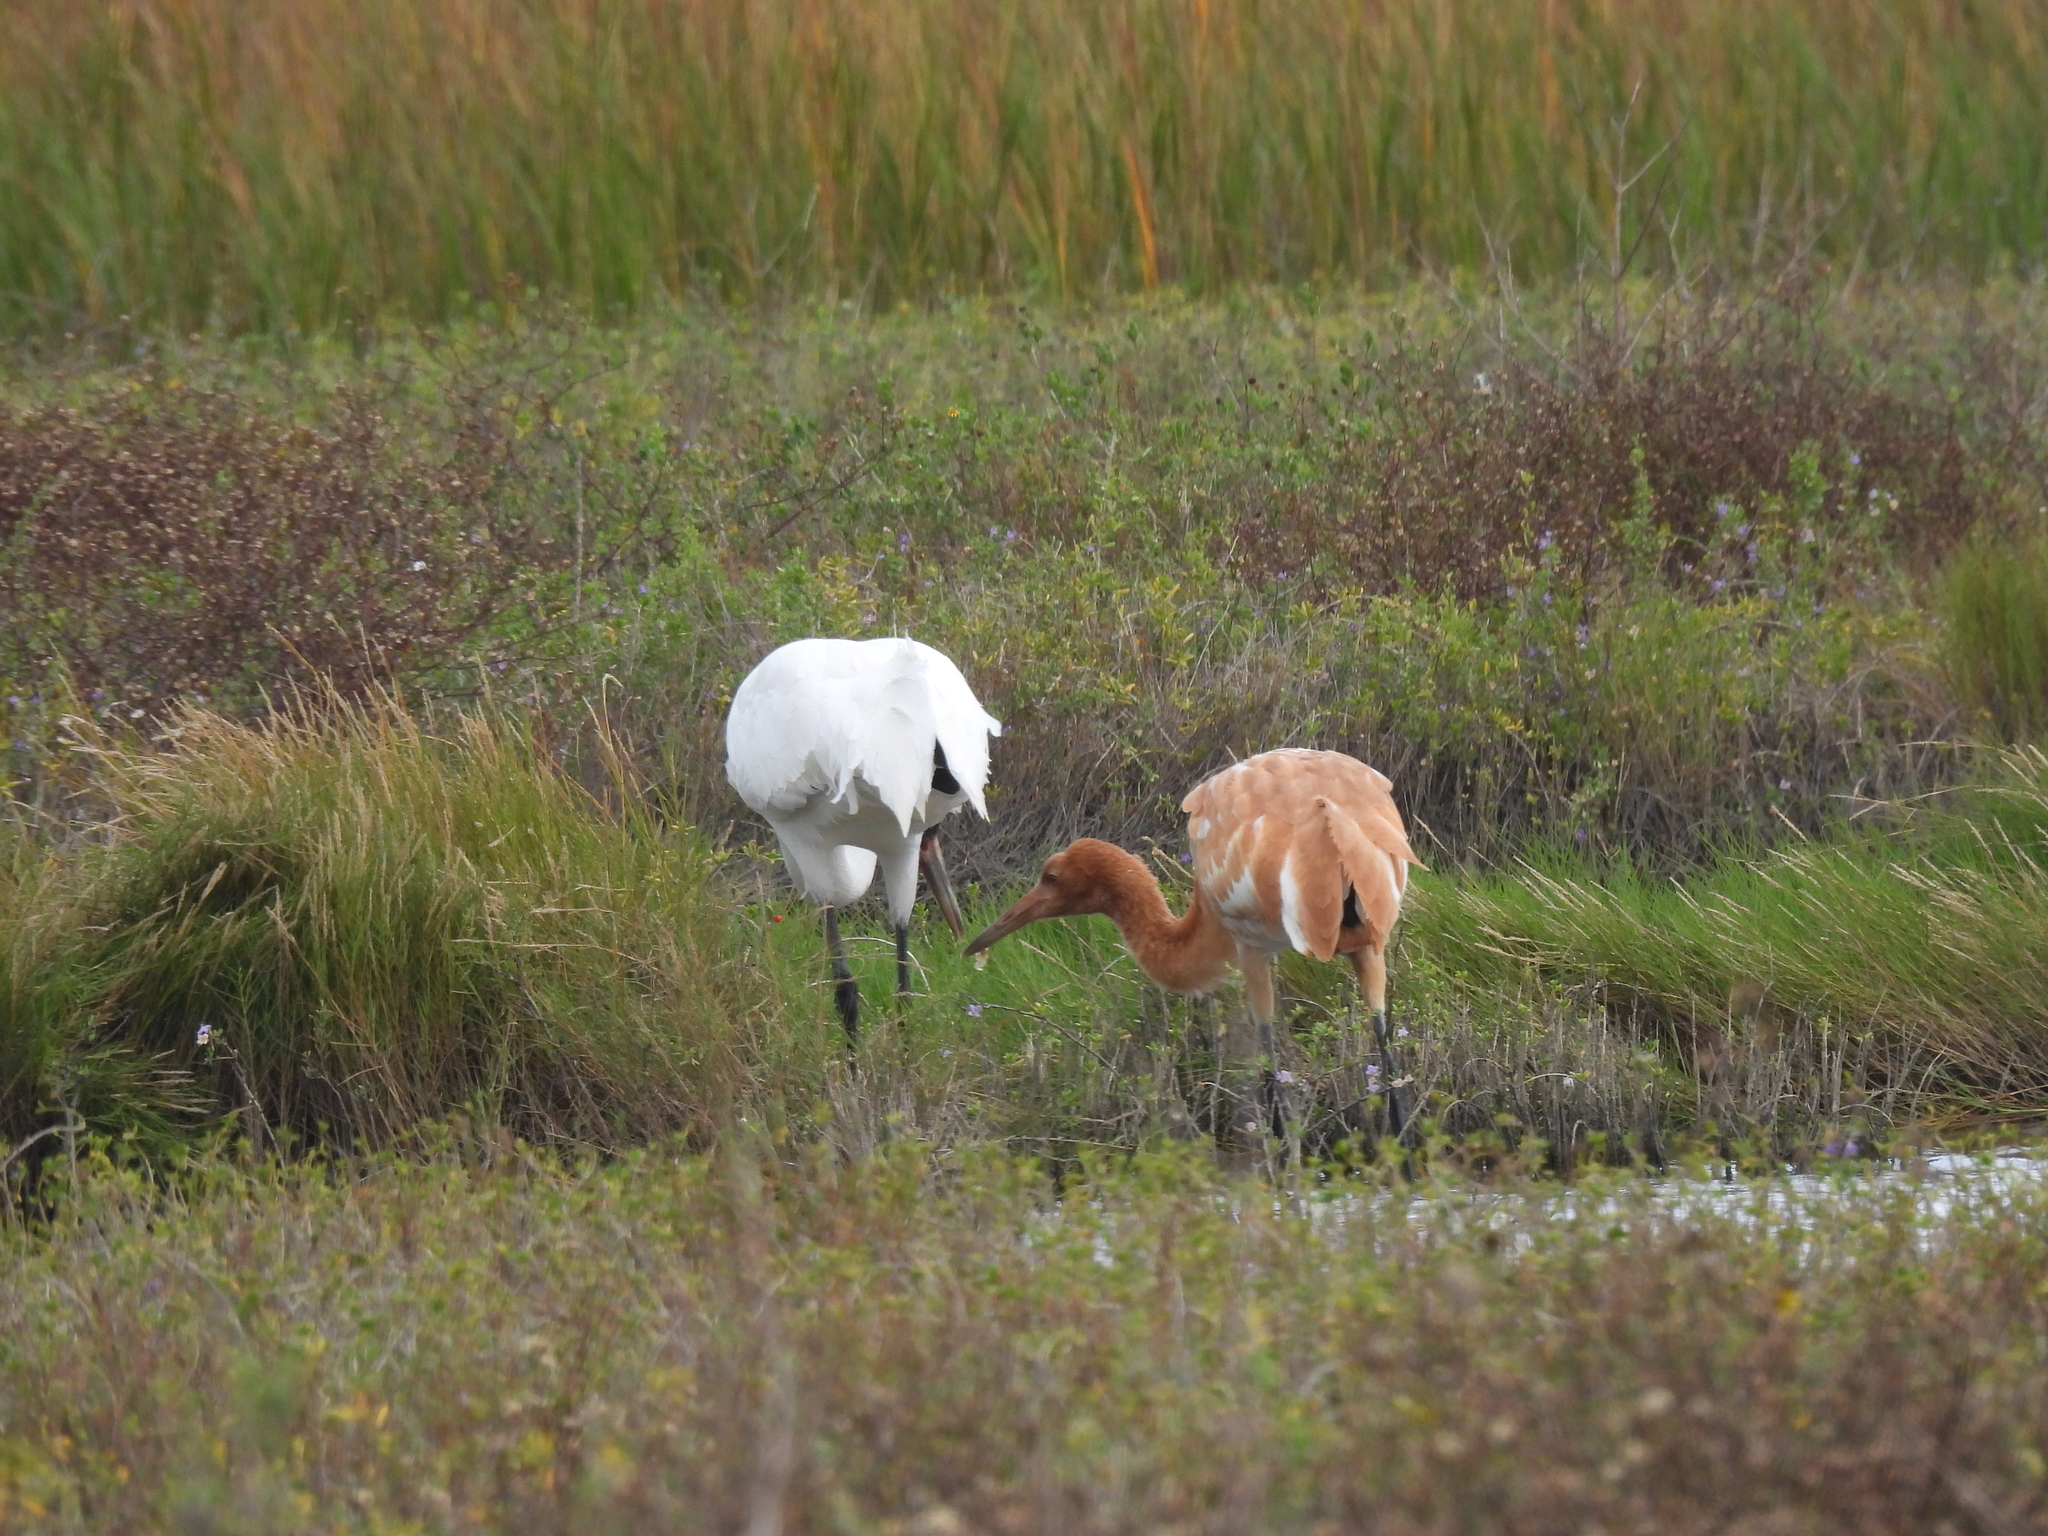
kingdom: Animalia
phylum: Chordata
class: Aves
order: Gruiformes
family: Gruidae
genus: Grus
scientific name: Grus americana
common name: Whooping crane
